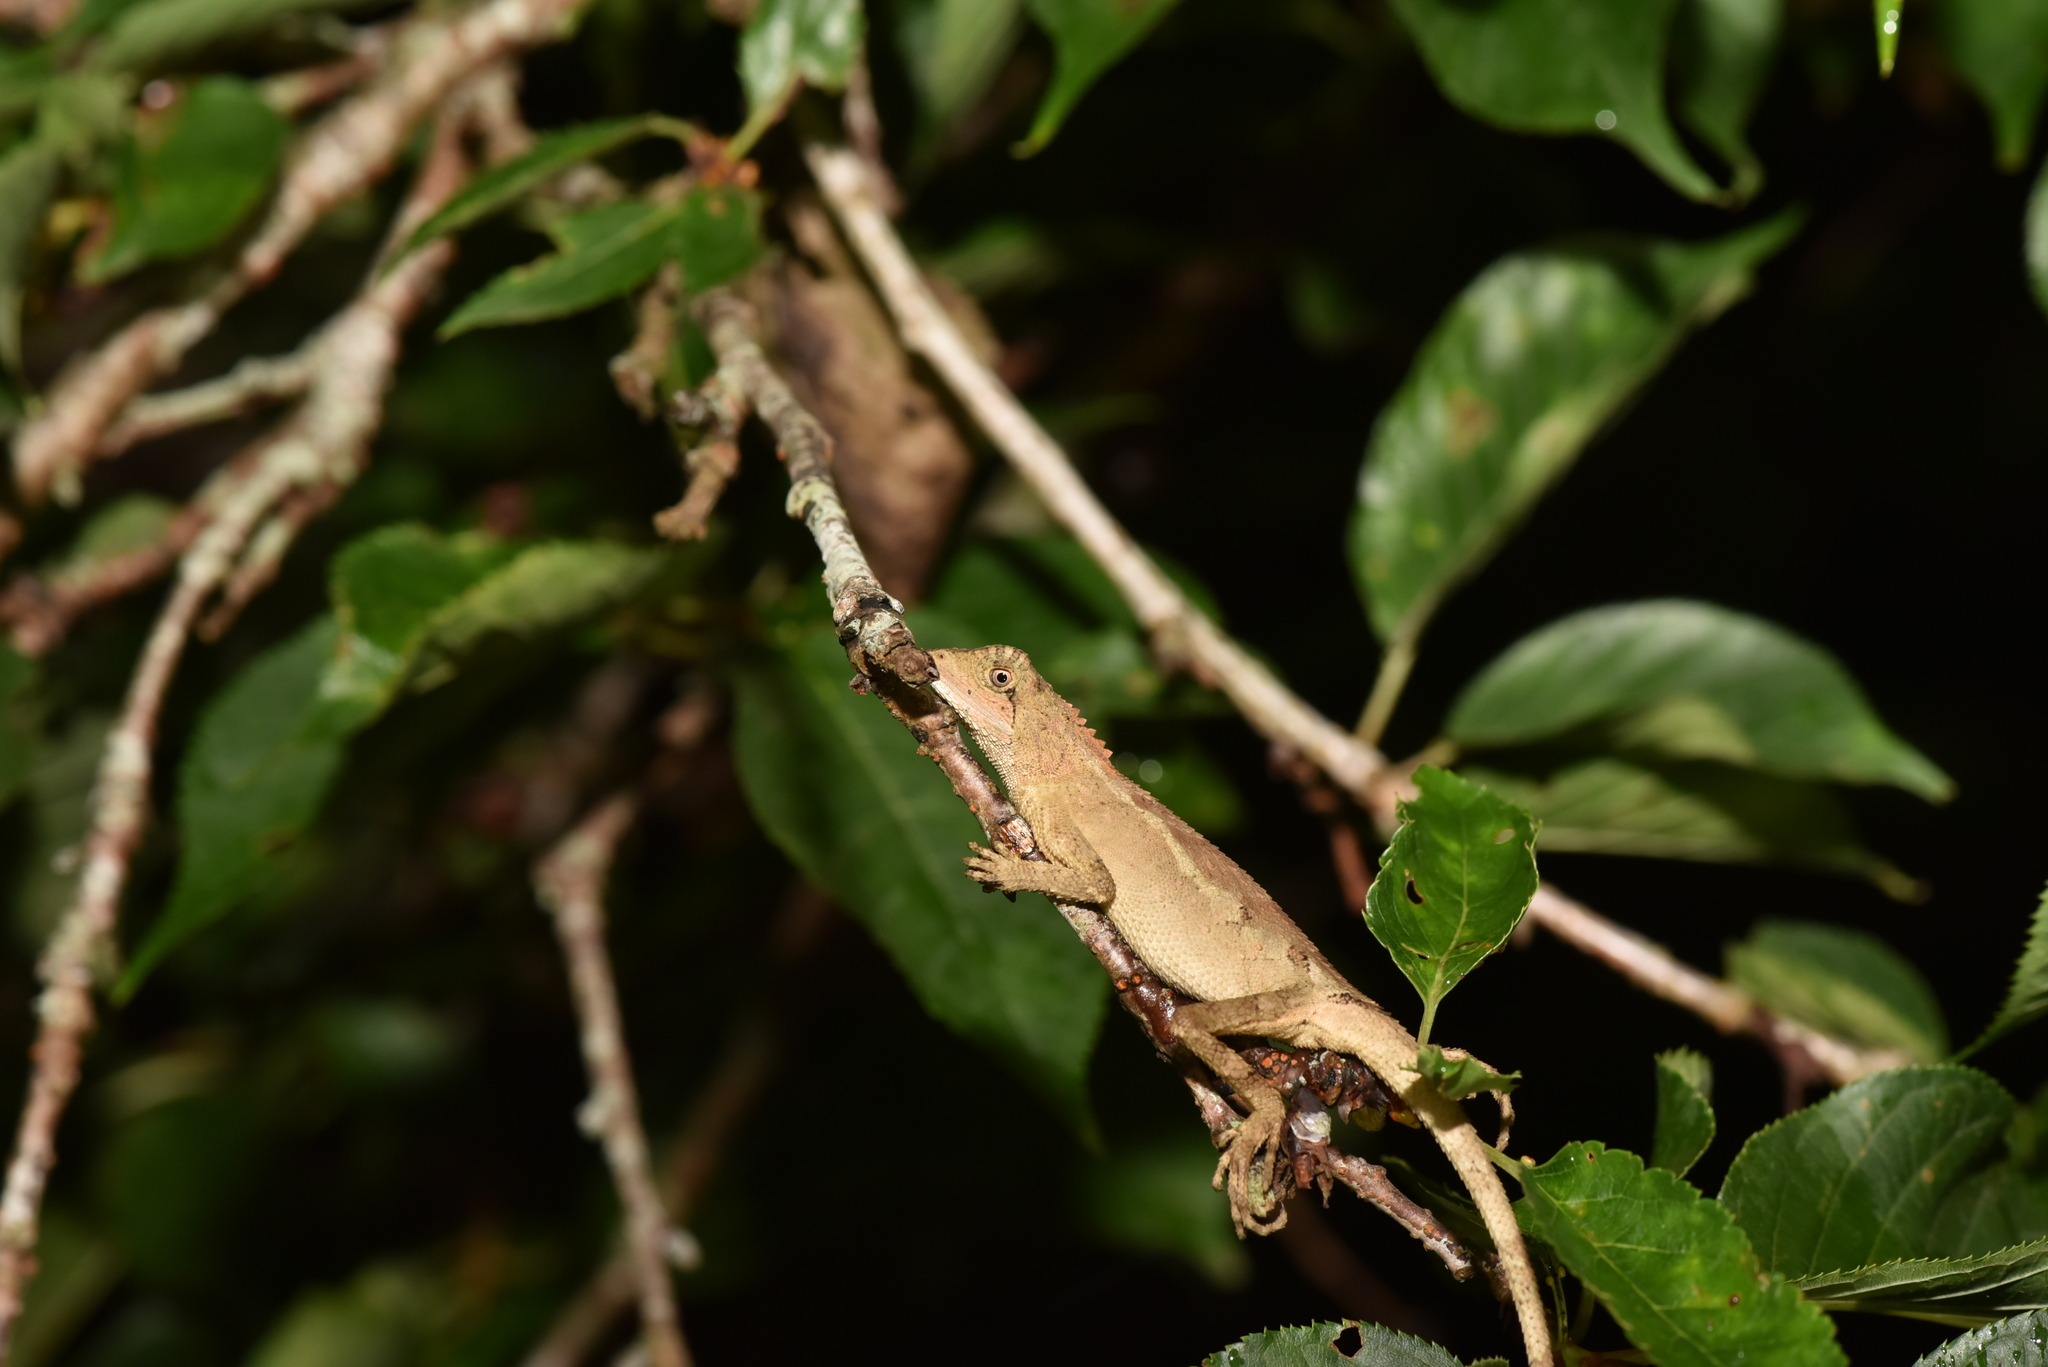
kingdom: Animalia
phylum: Chordata
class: Squamata
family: Agamidae
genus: Diploderma
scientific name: Diploderma swinhonis
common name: Taiwan japalure
